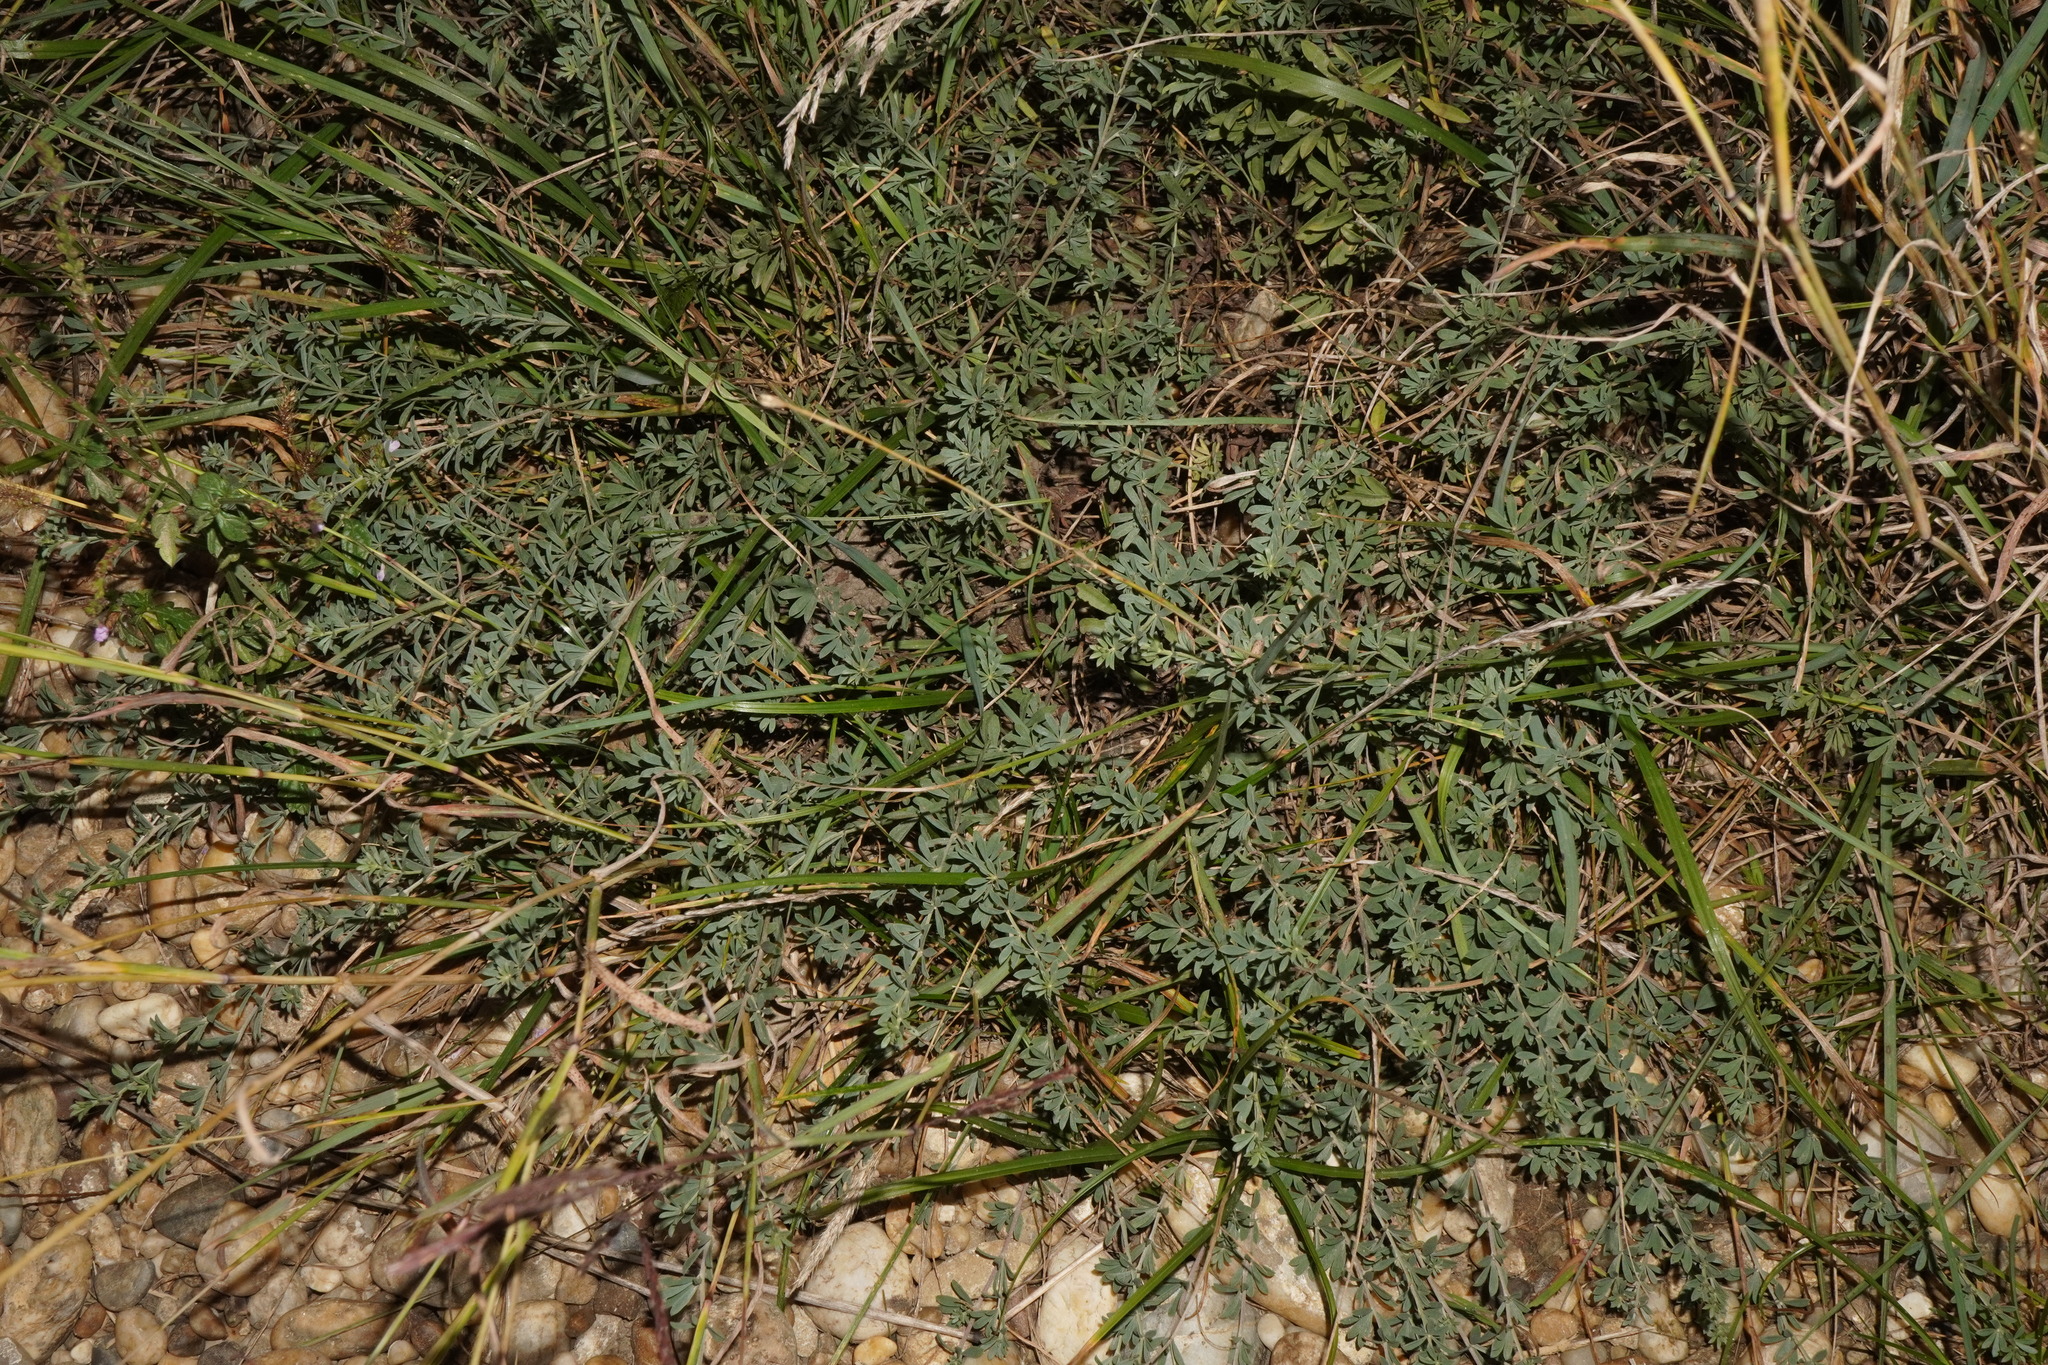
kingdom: Plantae
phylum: Tracheophyta
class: Magnoliopsida
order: Fabales
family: Fabaceae
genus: Lotus
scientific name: Lotus germanicus
